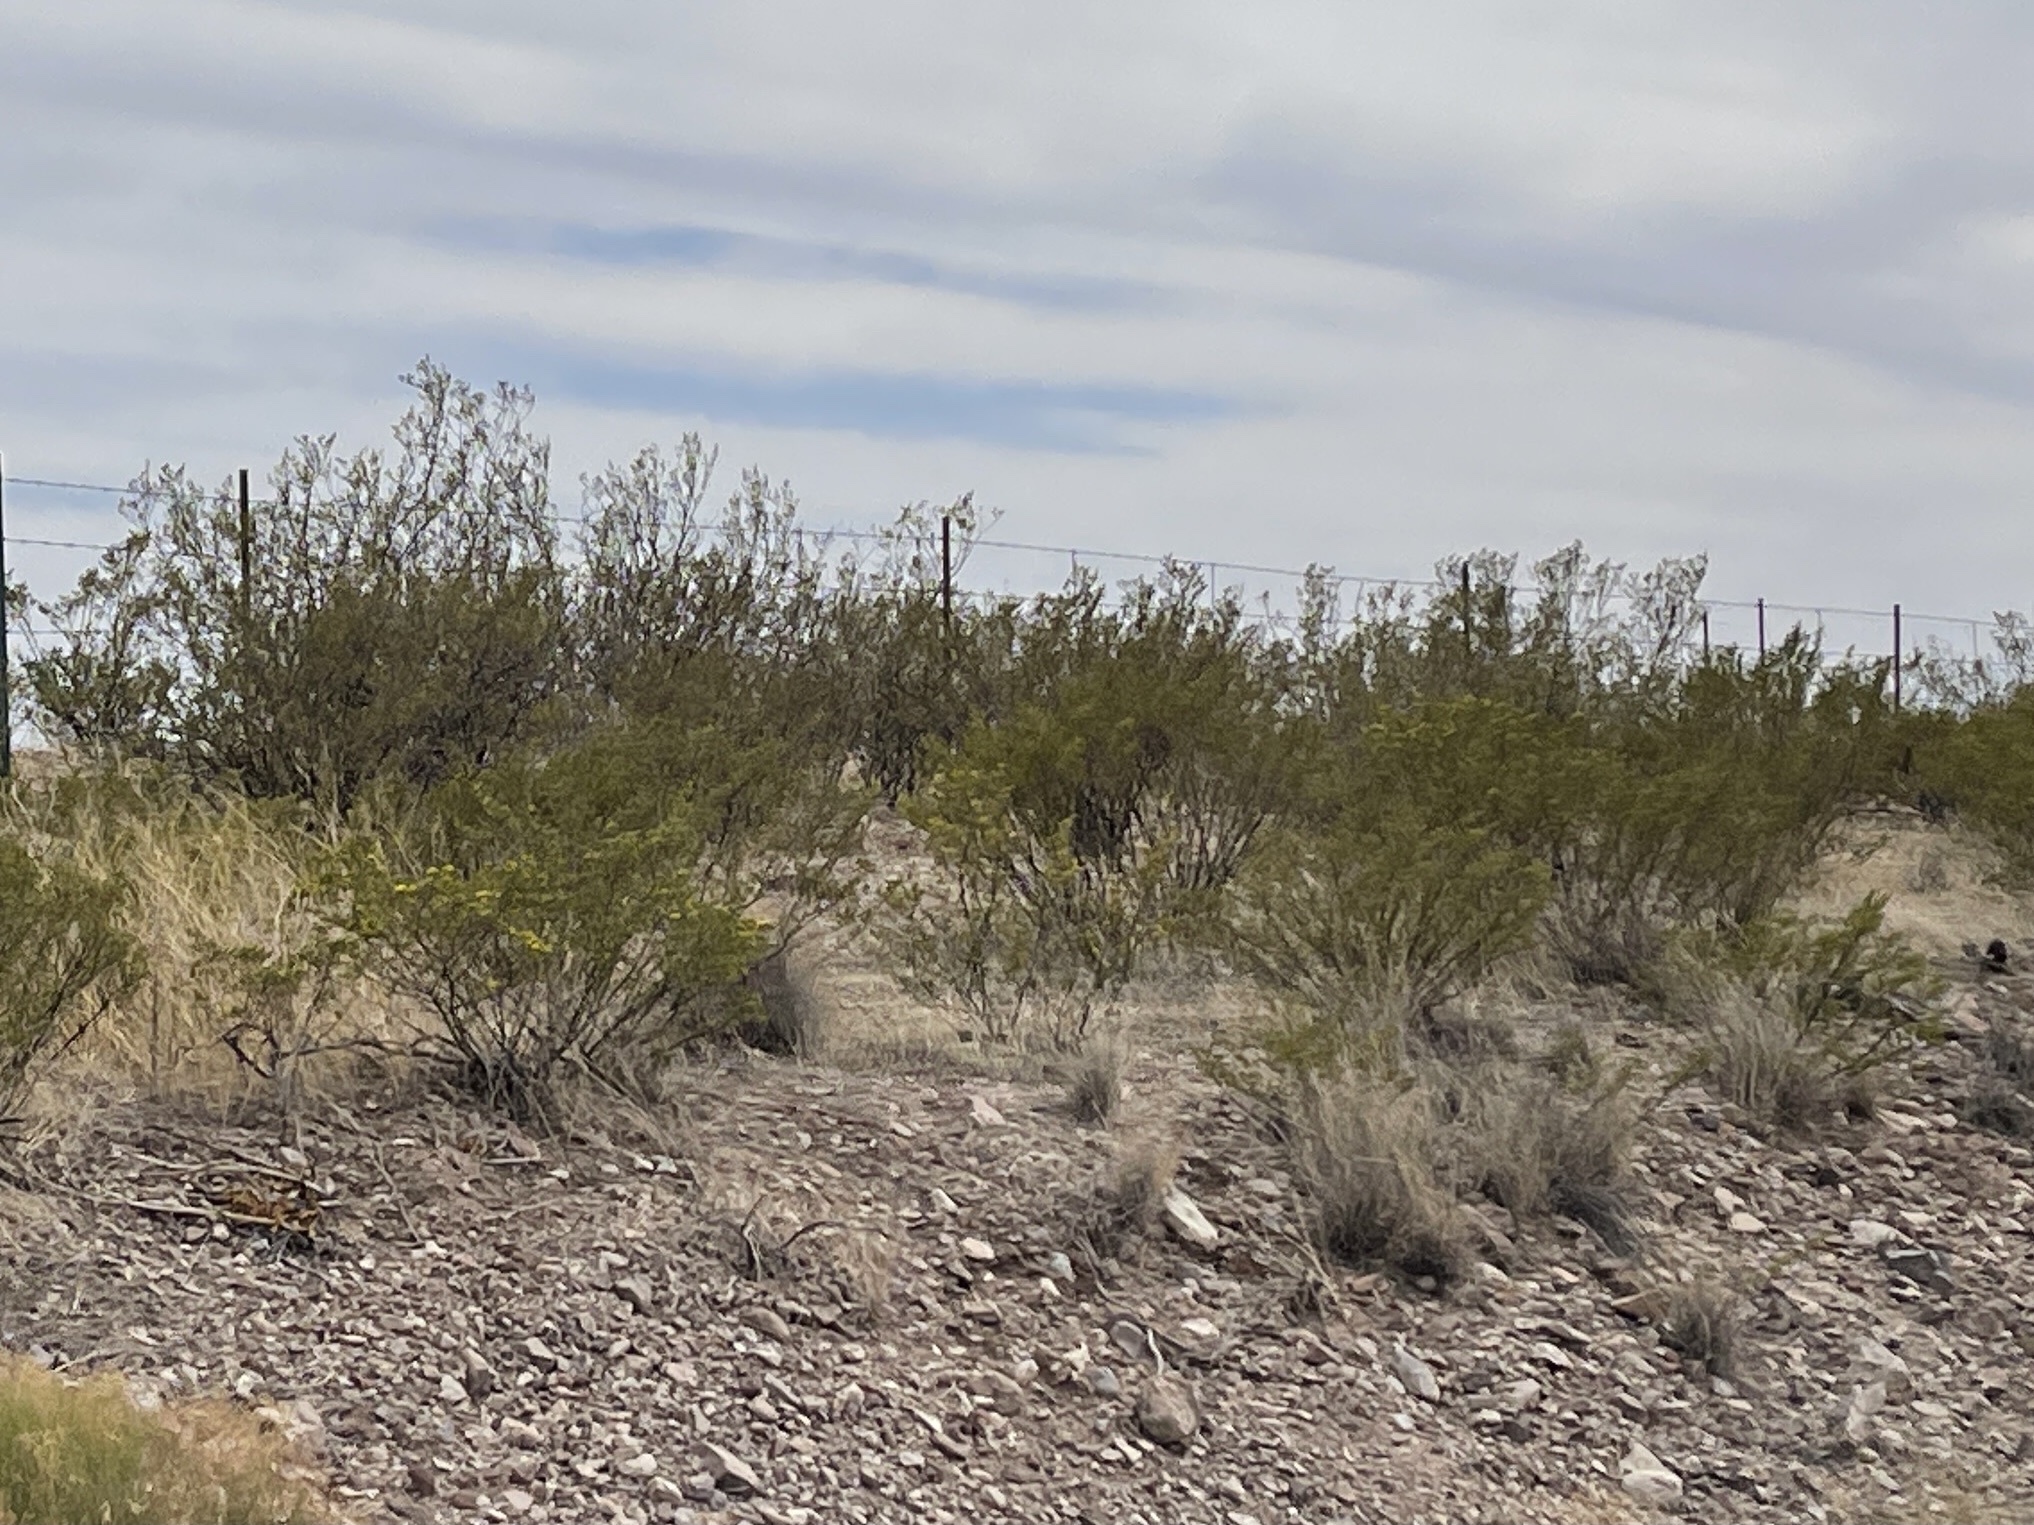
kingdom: Plantae
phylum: Tracheophyta
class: Magnoliopsida
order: Zygophyllales
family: Zygophyllaceae
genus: Larrea
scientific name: Larrea tridentata
